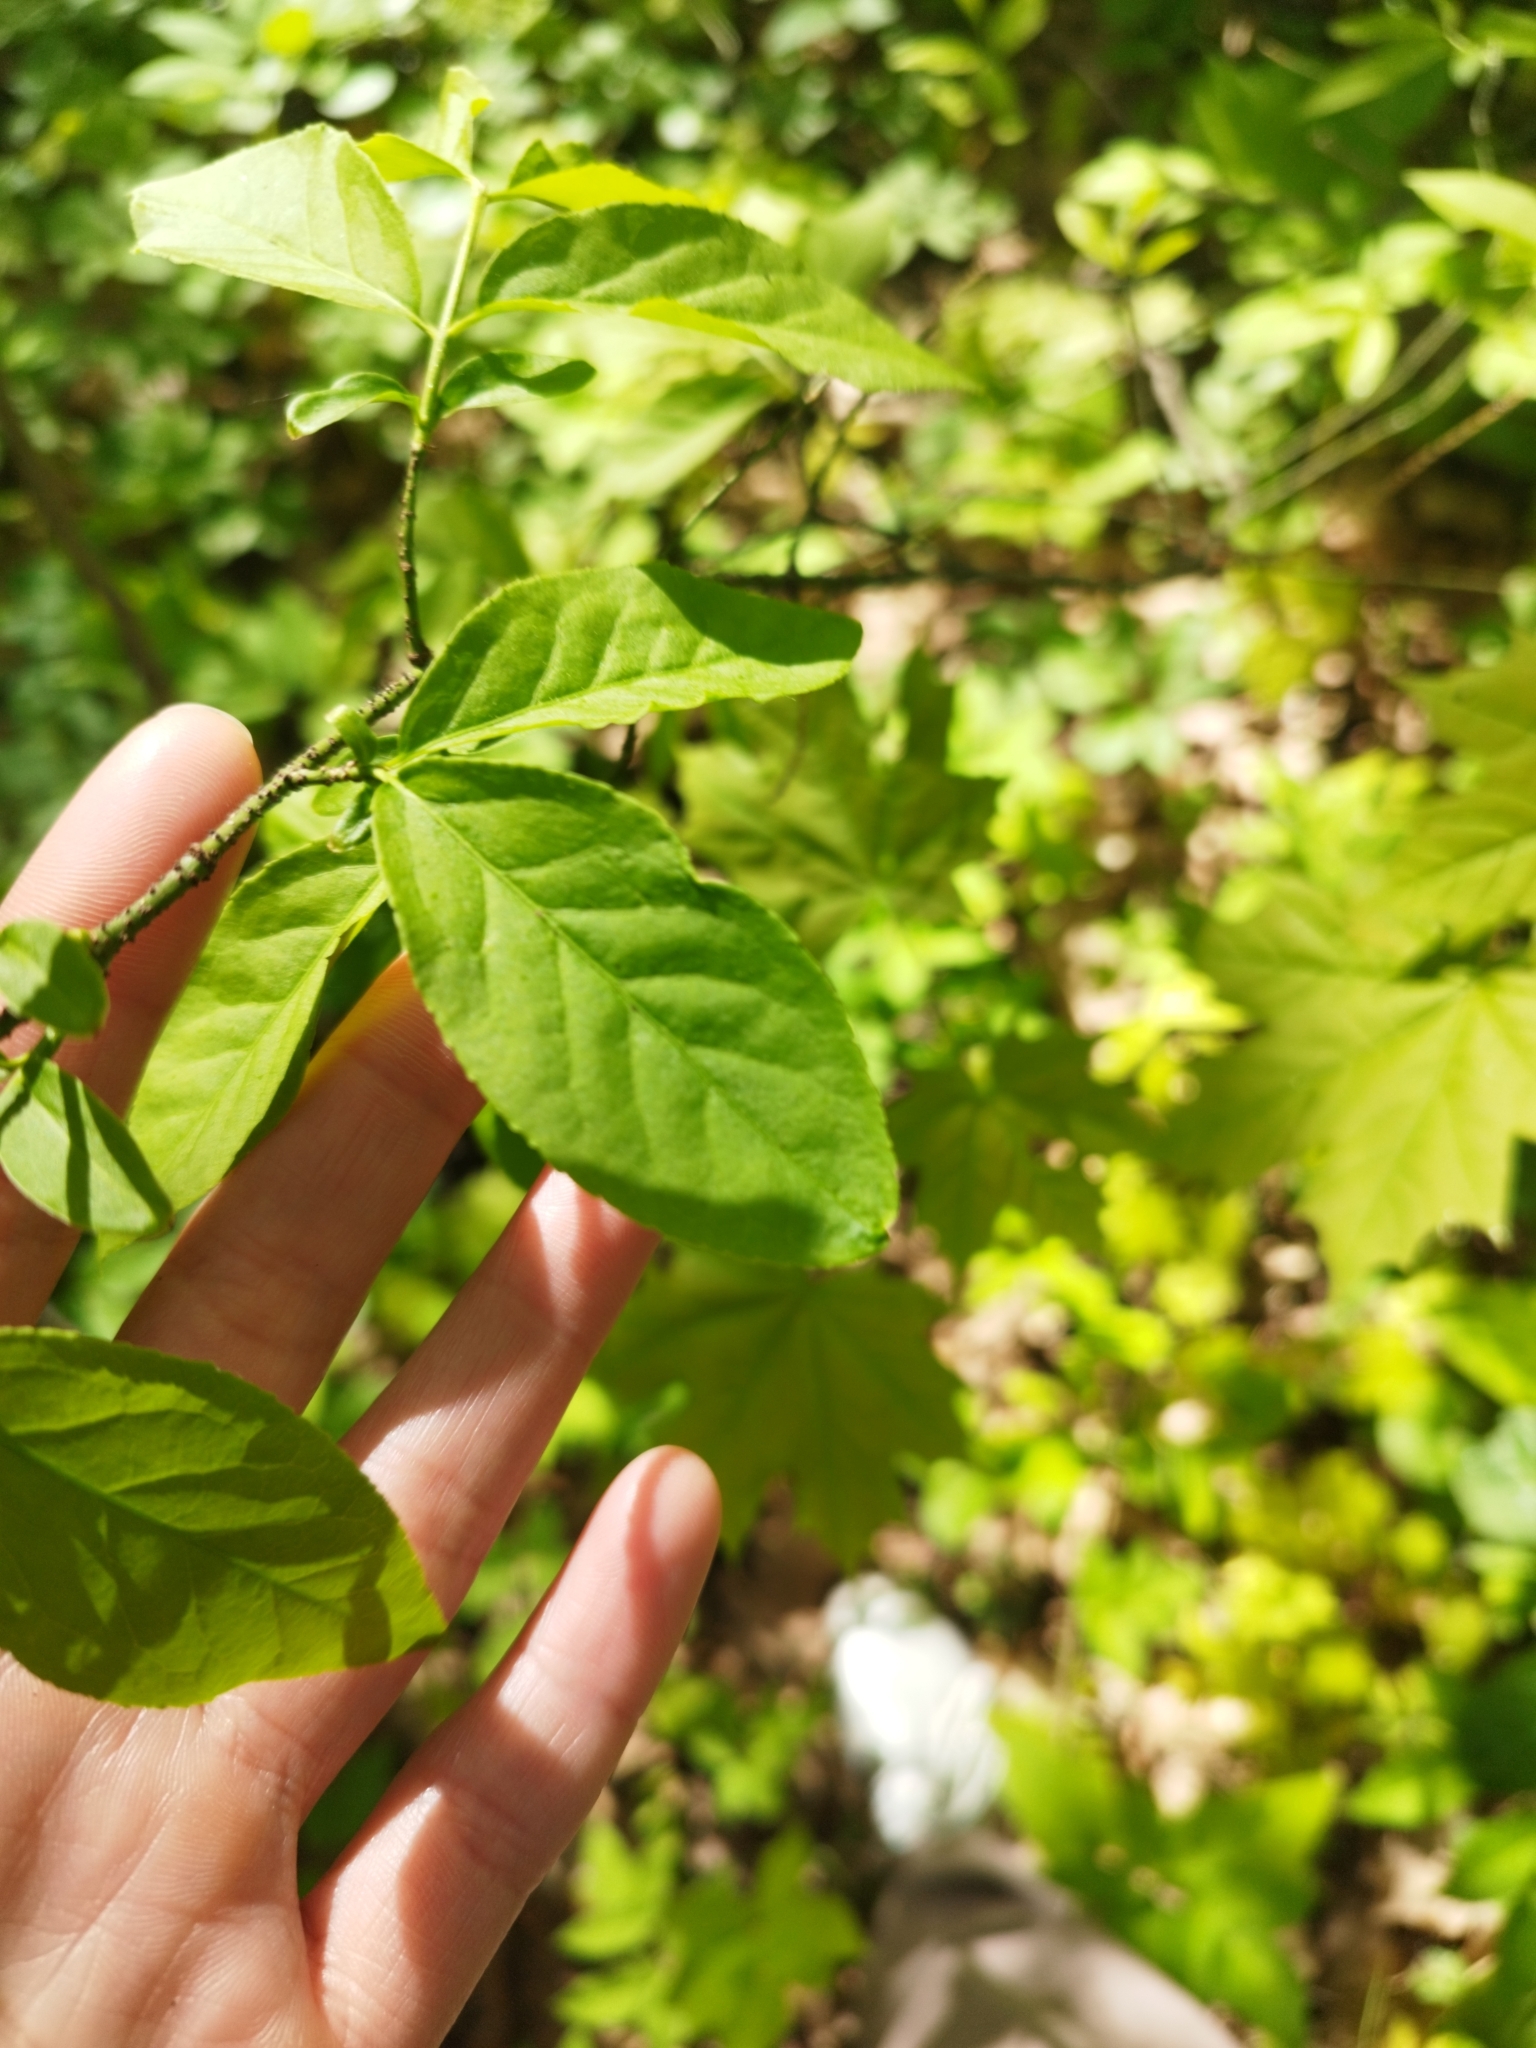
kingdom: Plantae
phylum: Tracheophyta
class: Magnoliopsida
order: Celastrales
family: Celastraceae
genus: Euonymus
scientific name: Euonymus verrucosus
